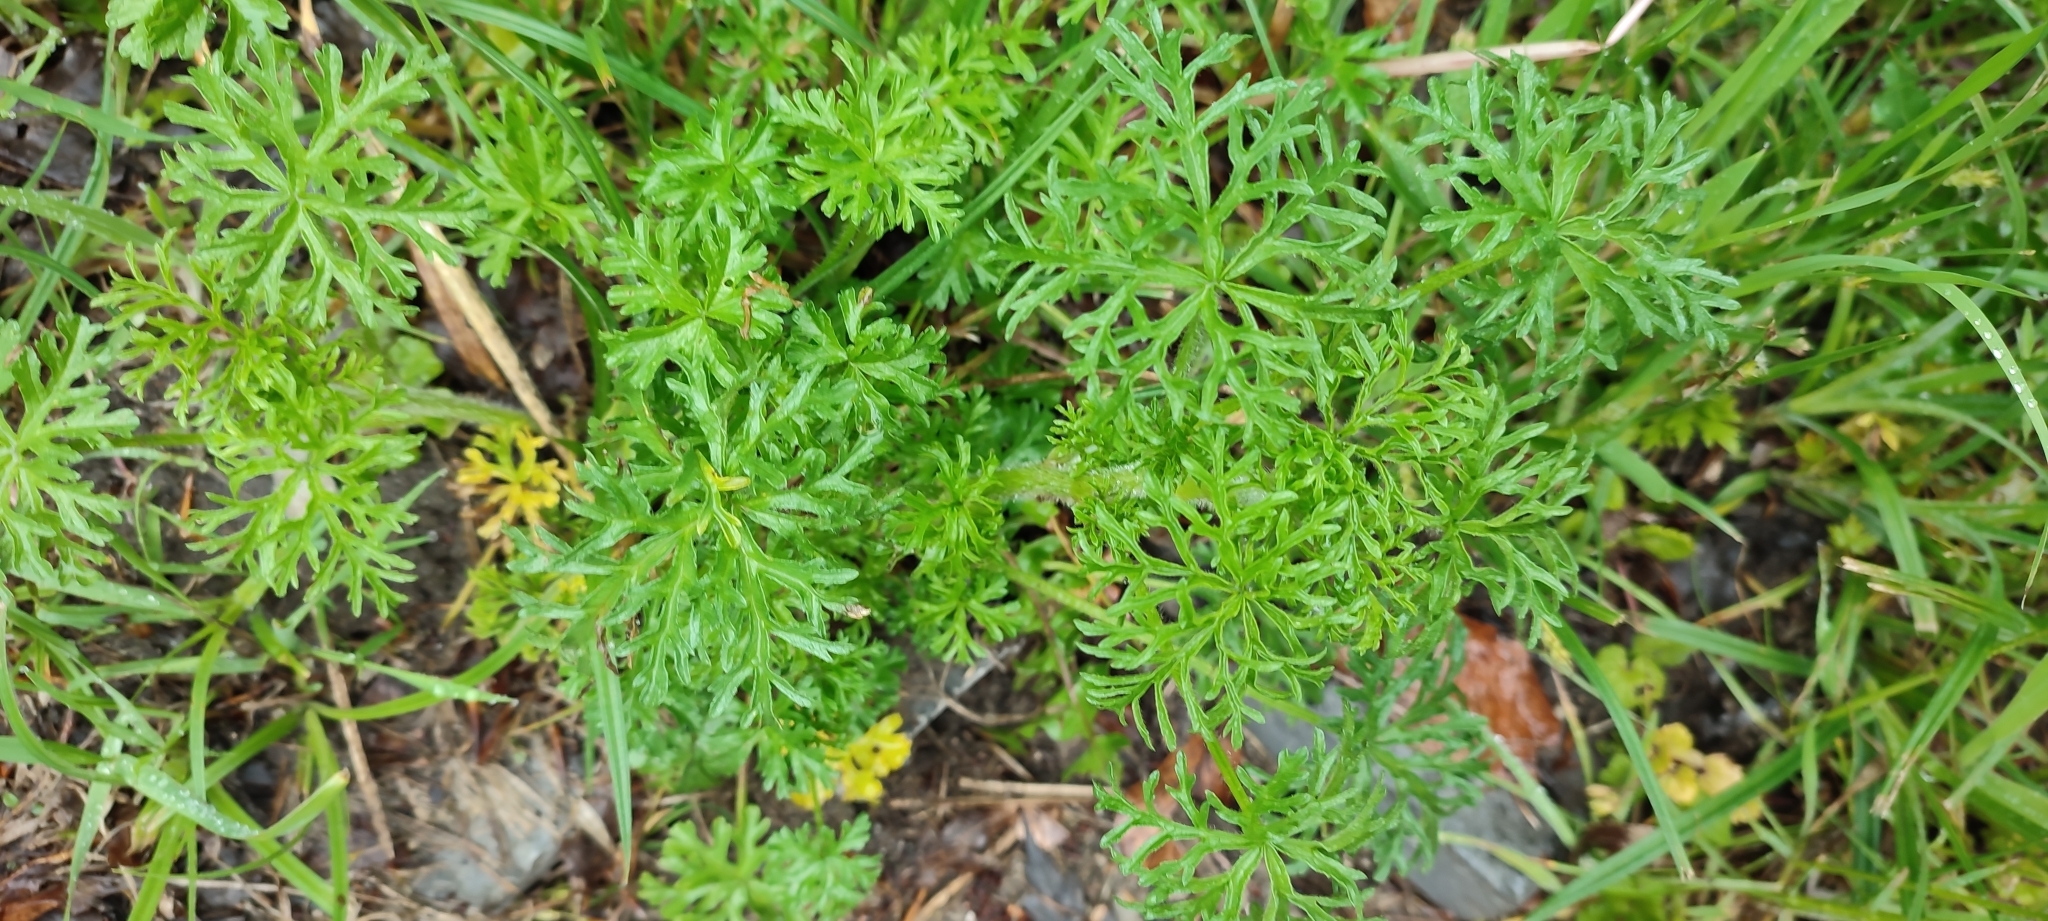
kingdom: Plantae
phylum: Tracheophyta
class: Magnoliopsida
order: Malvales
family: Malvaceae
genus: Malva
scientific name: Malva moschata
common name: Musk mallow
